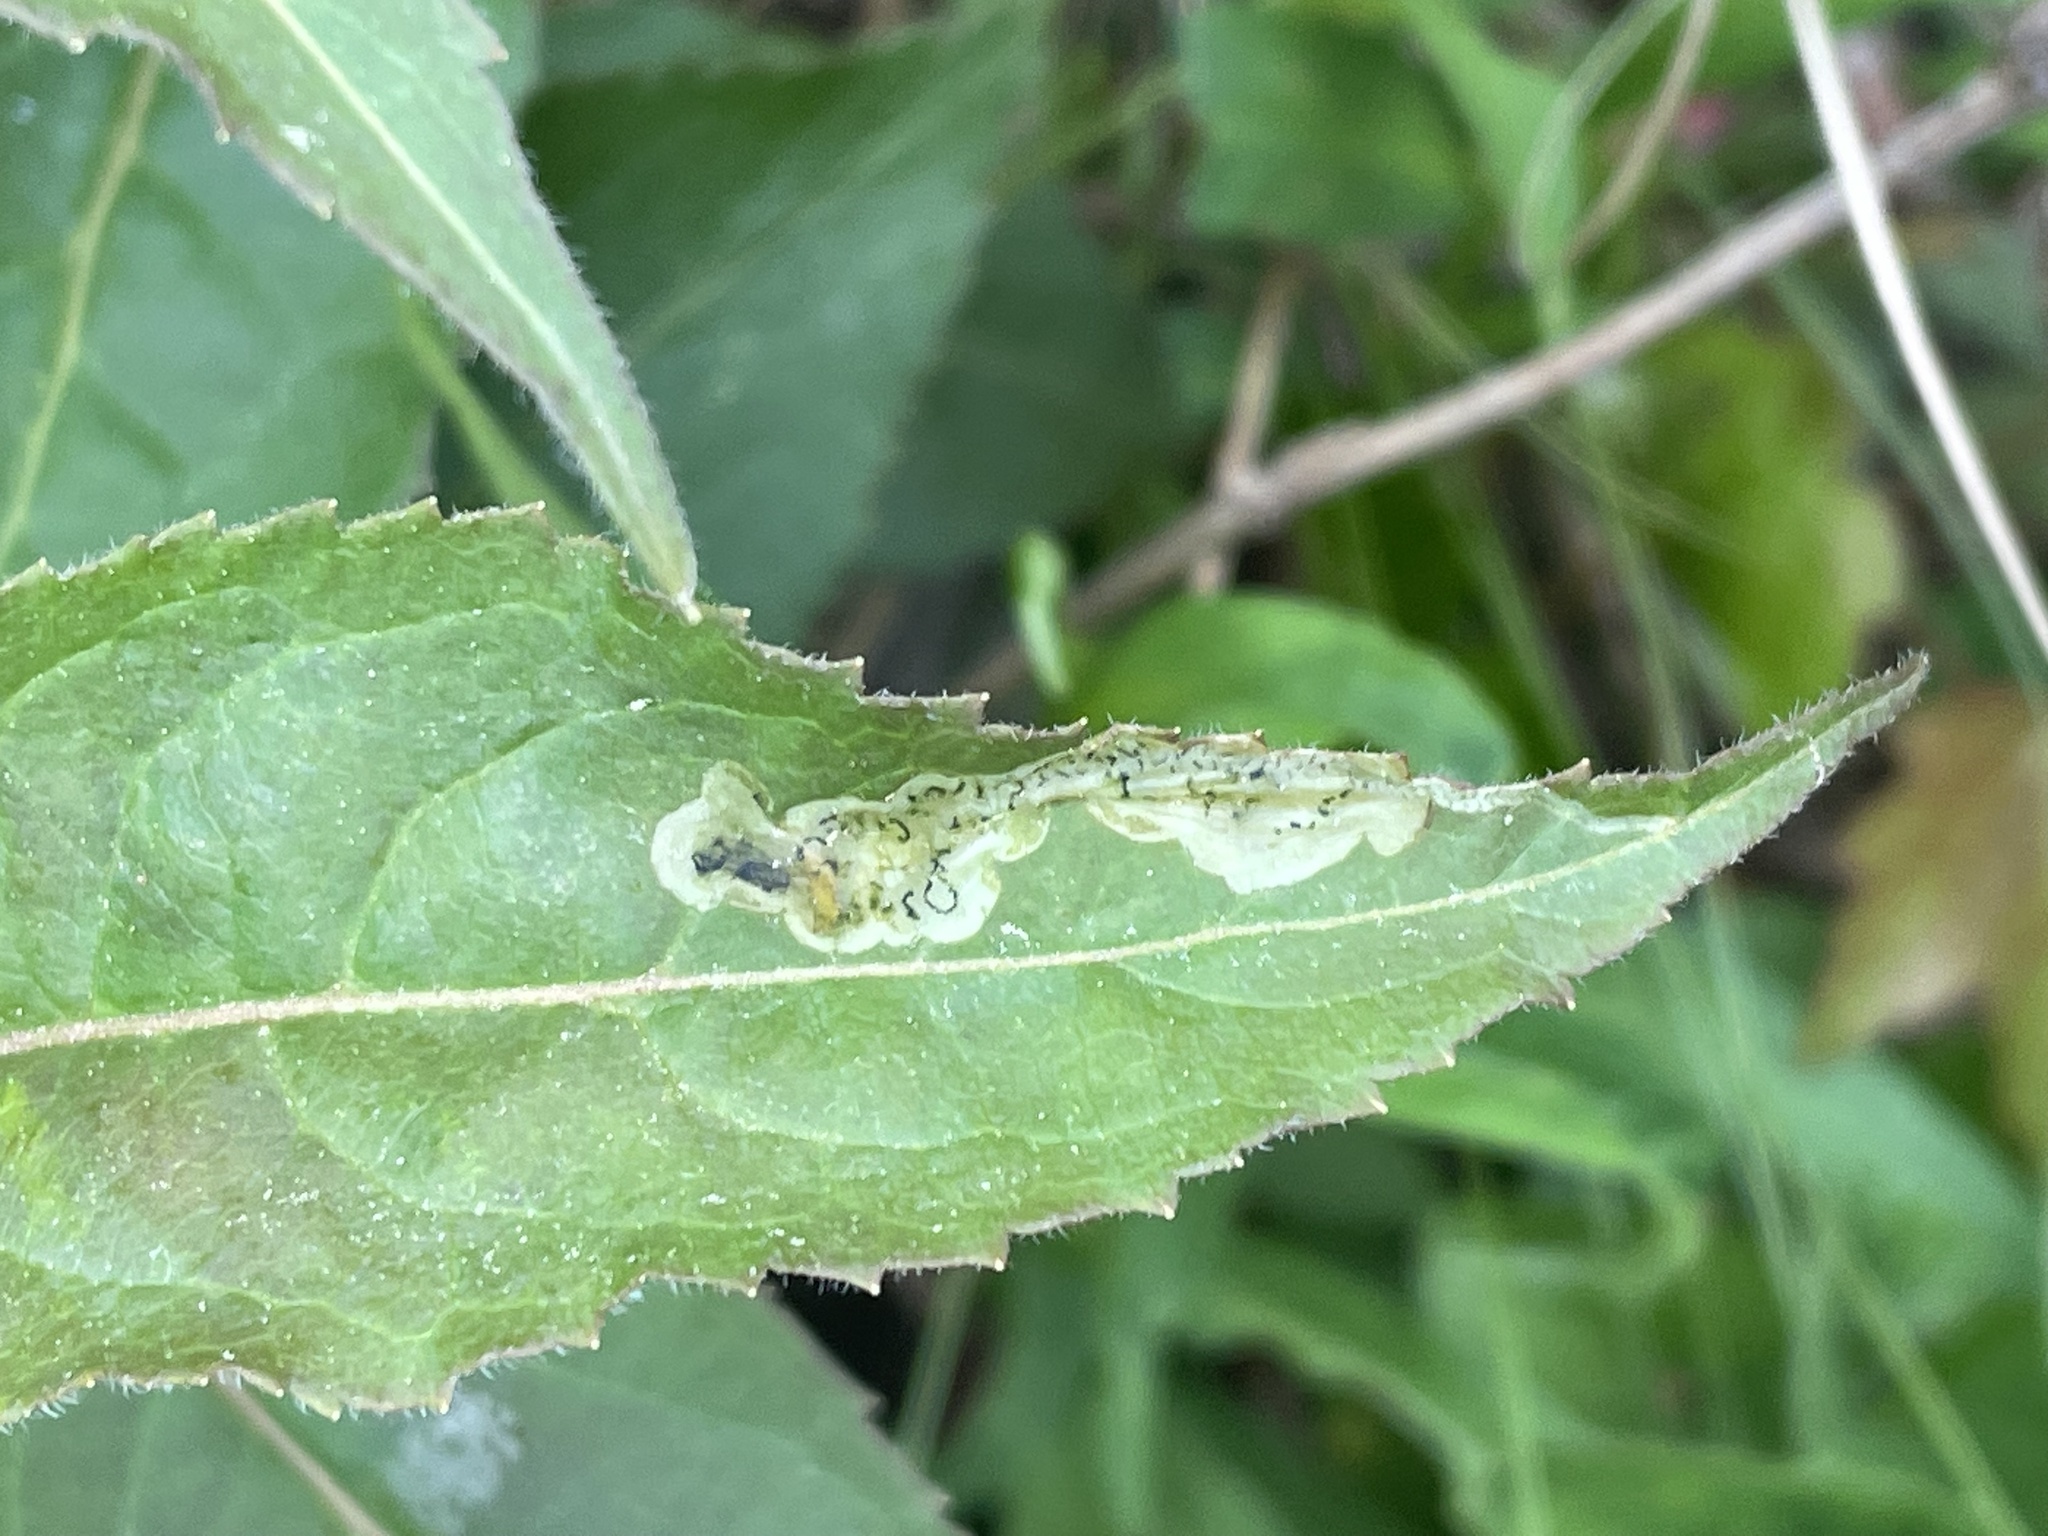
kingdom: Animalia
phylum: Arthropoda
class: Insecta
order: Diptera
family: Agromyzidae
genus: Aulagromyza
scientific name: Aulagromyza orbitalis
